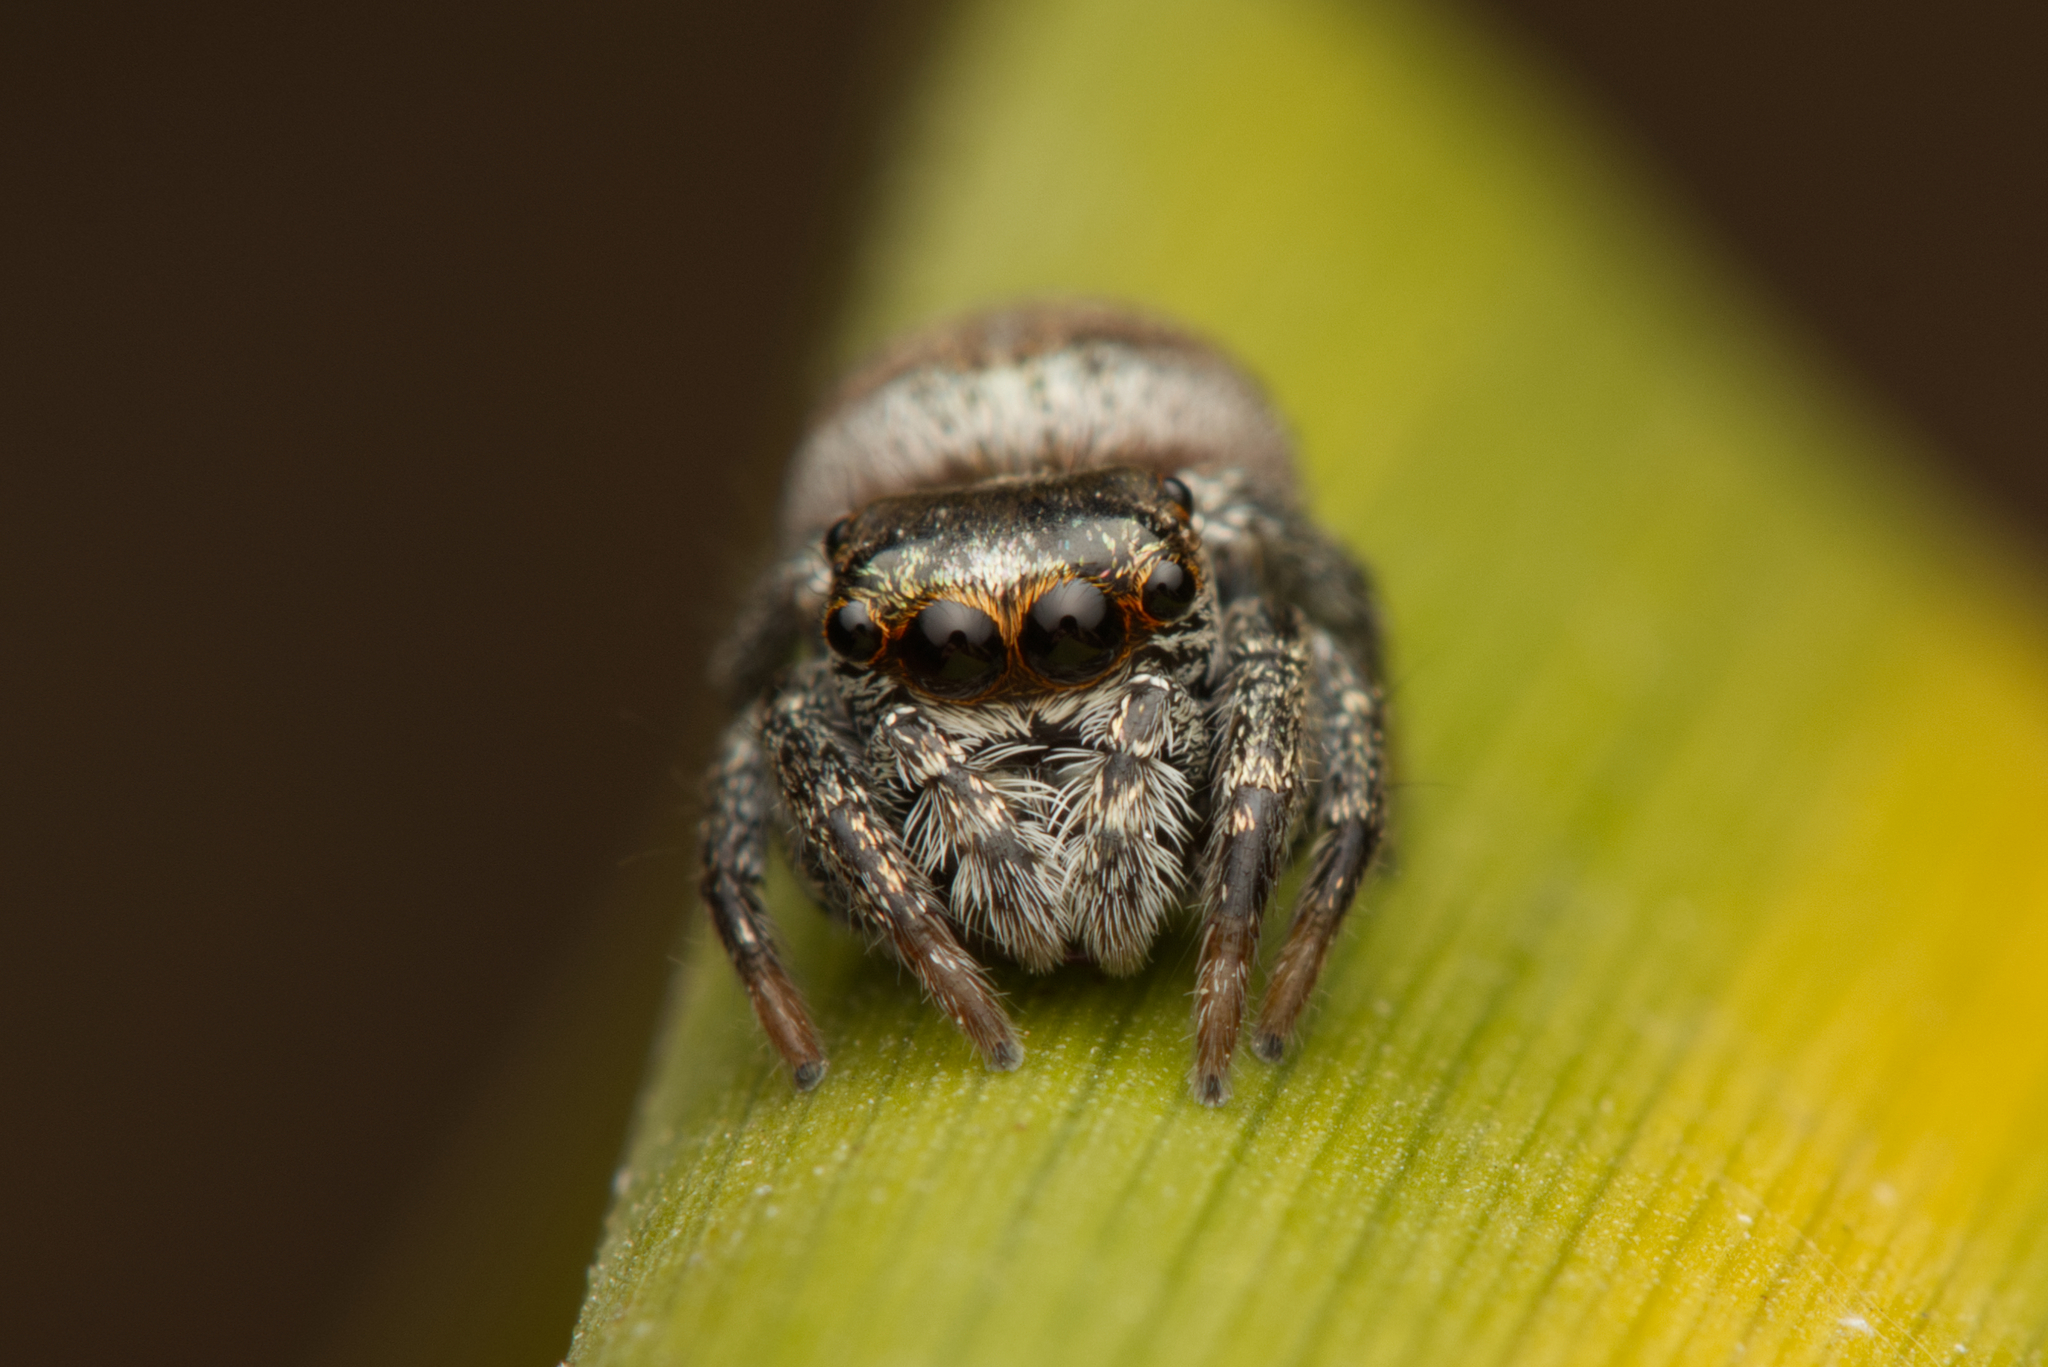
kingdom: Animalia
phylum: Arthropoda
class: Arachnida
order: Araneae
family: Salticidae
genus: Euryattus
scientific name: Euryattus bleekeri
